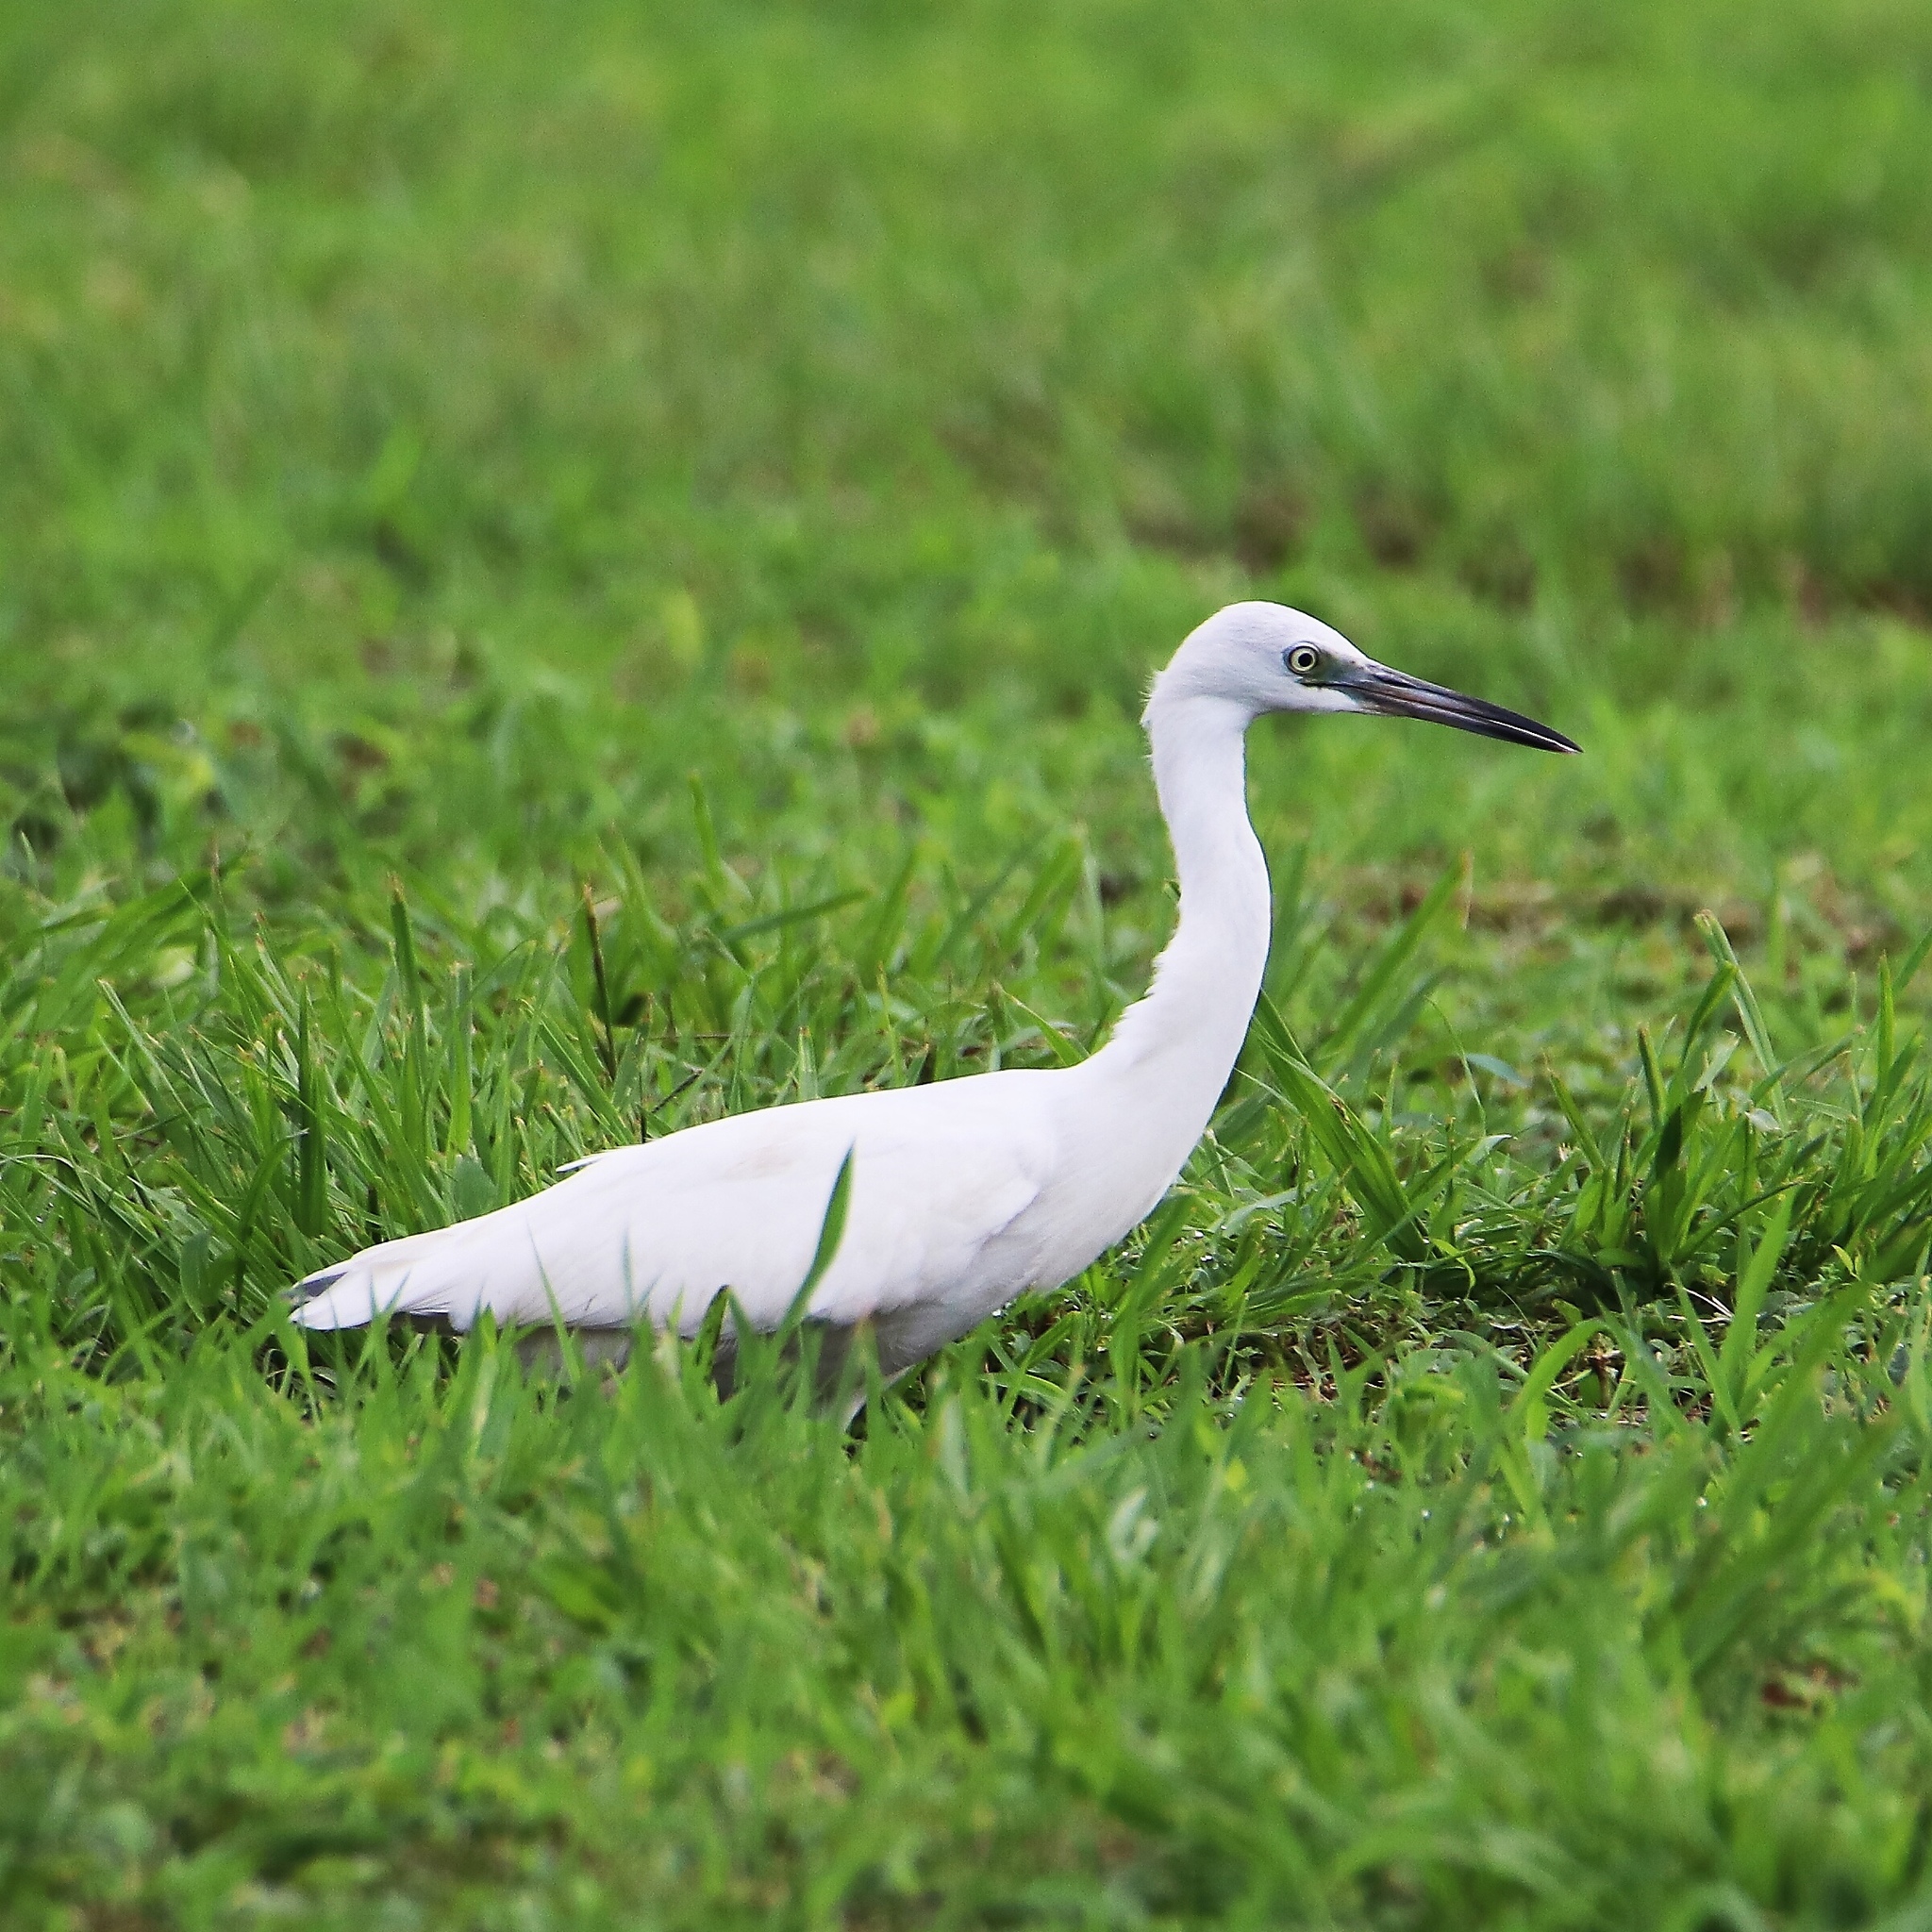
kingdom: Animalia
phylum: Chordata
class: Aves
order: Pelecaniformes
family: Ardeidae
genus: Egretta
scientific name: Egretta caerulea
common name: Little blue heron
